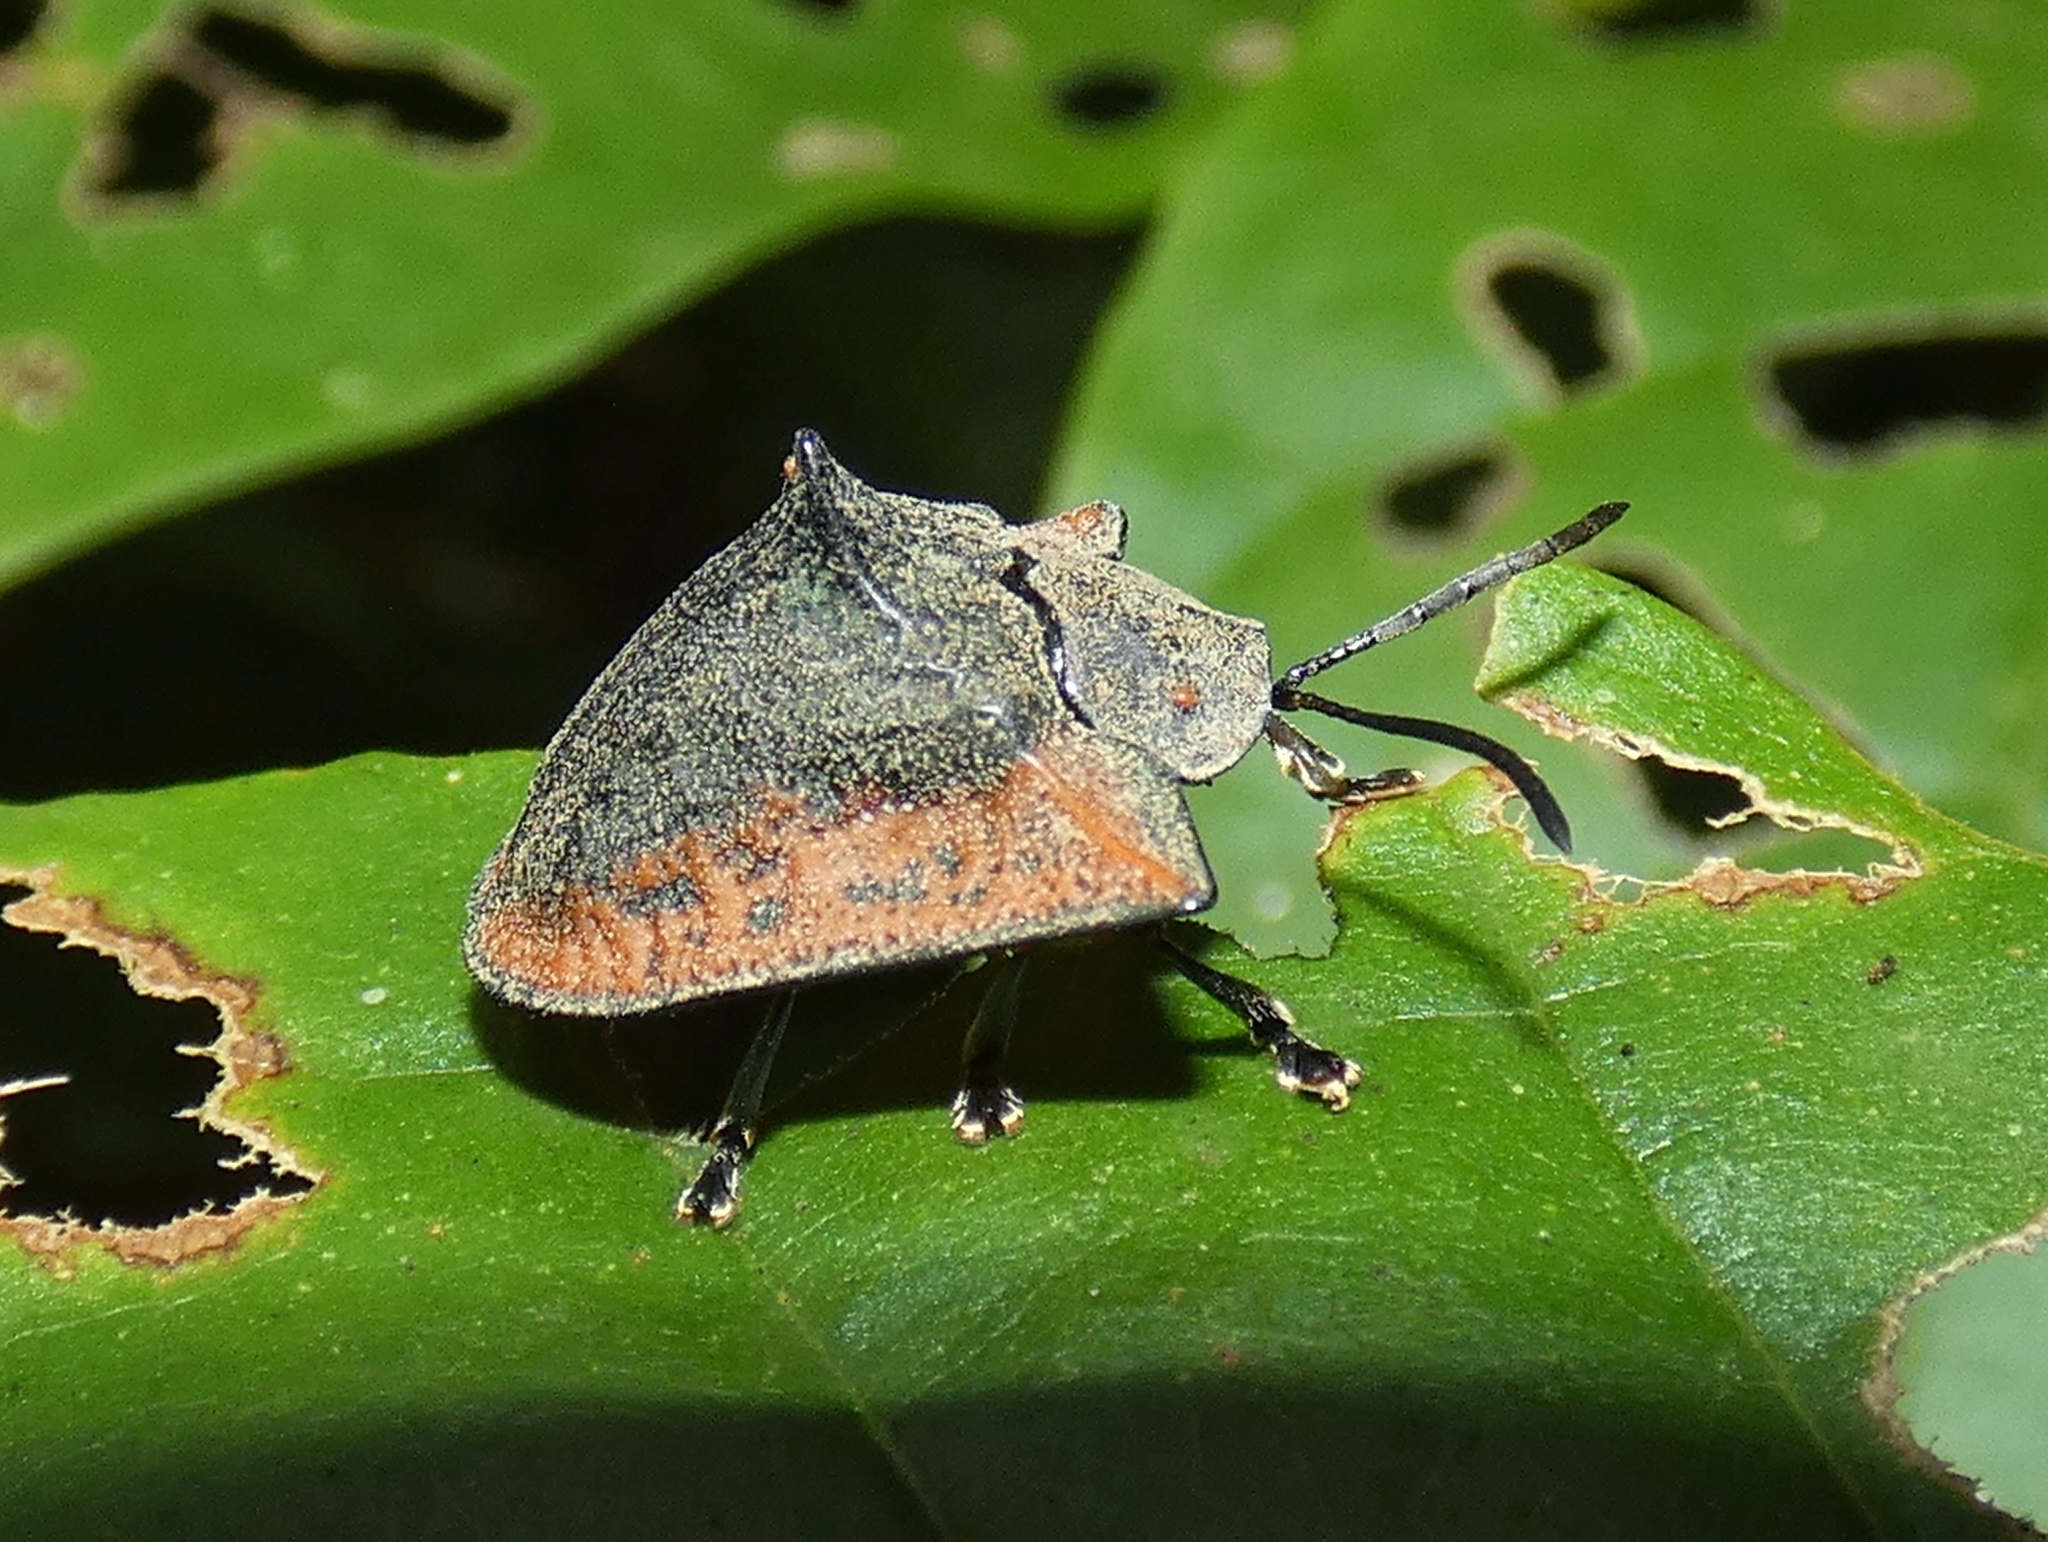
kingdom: Animalia
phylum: Arthropoda
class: Insecta
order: Coleoptera
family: Chrysomelidae
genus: Dorynota
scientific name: Dorynota godmani
